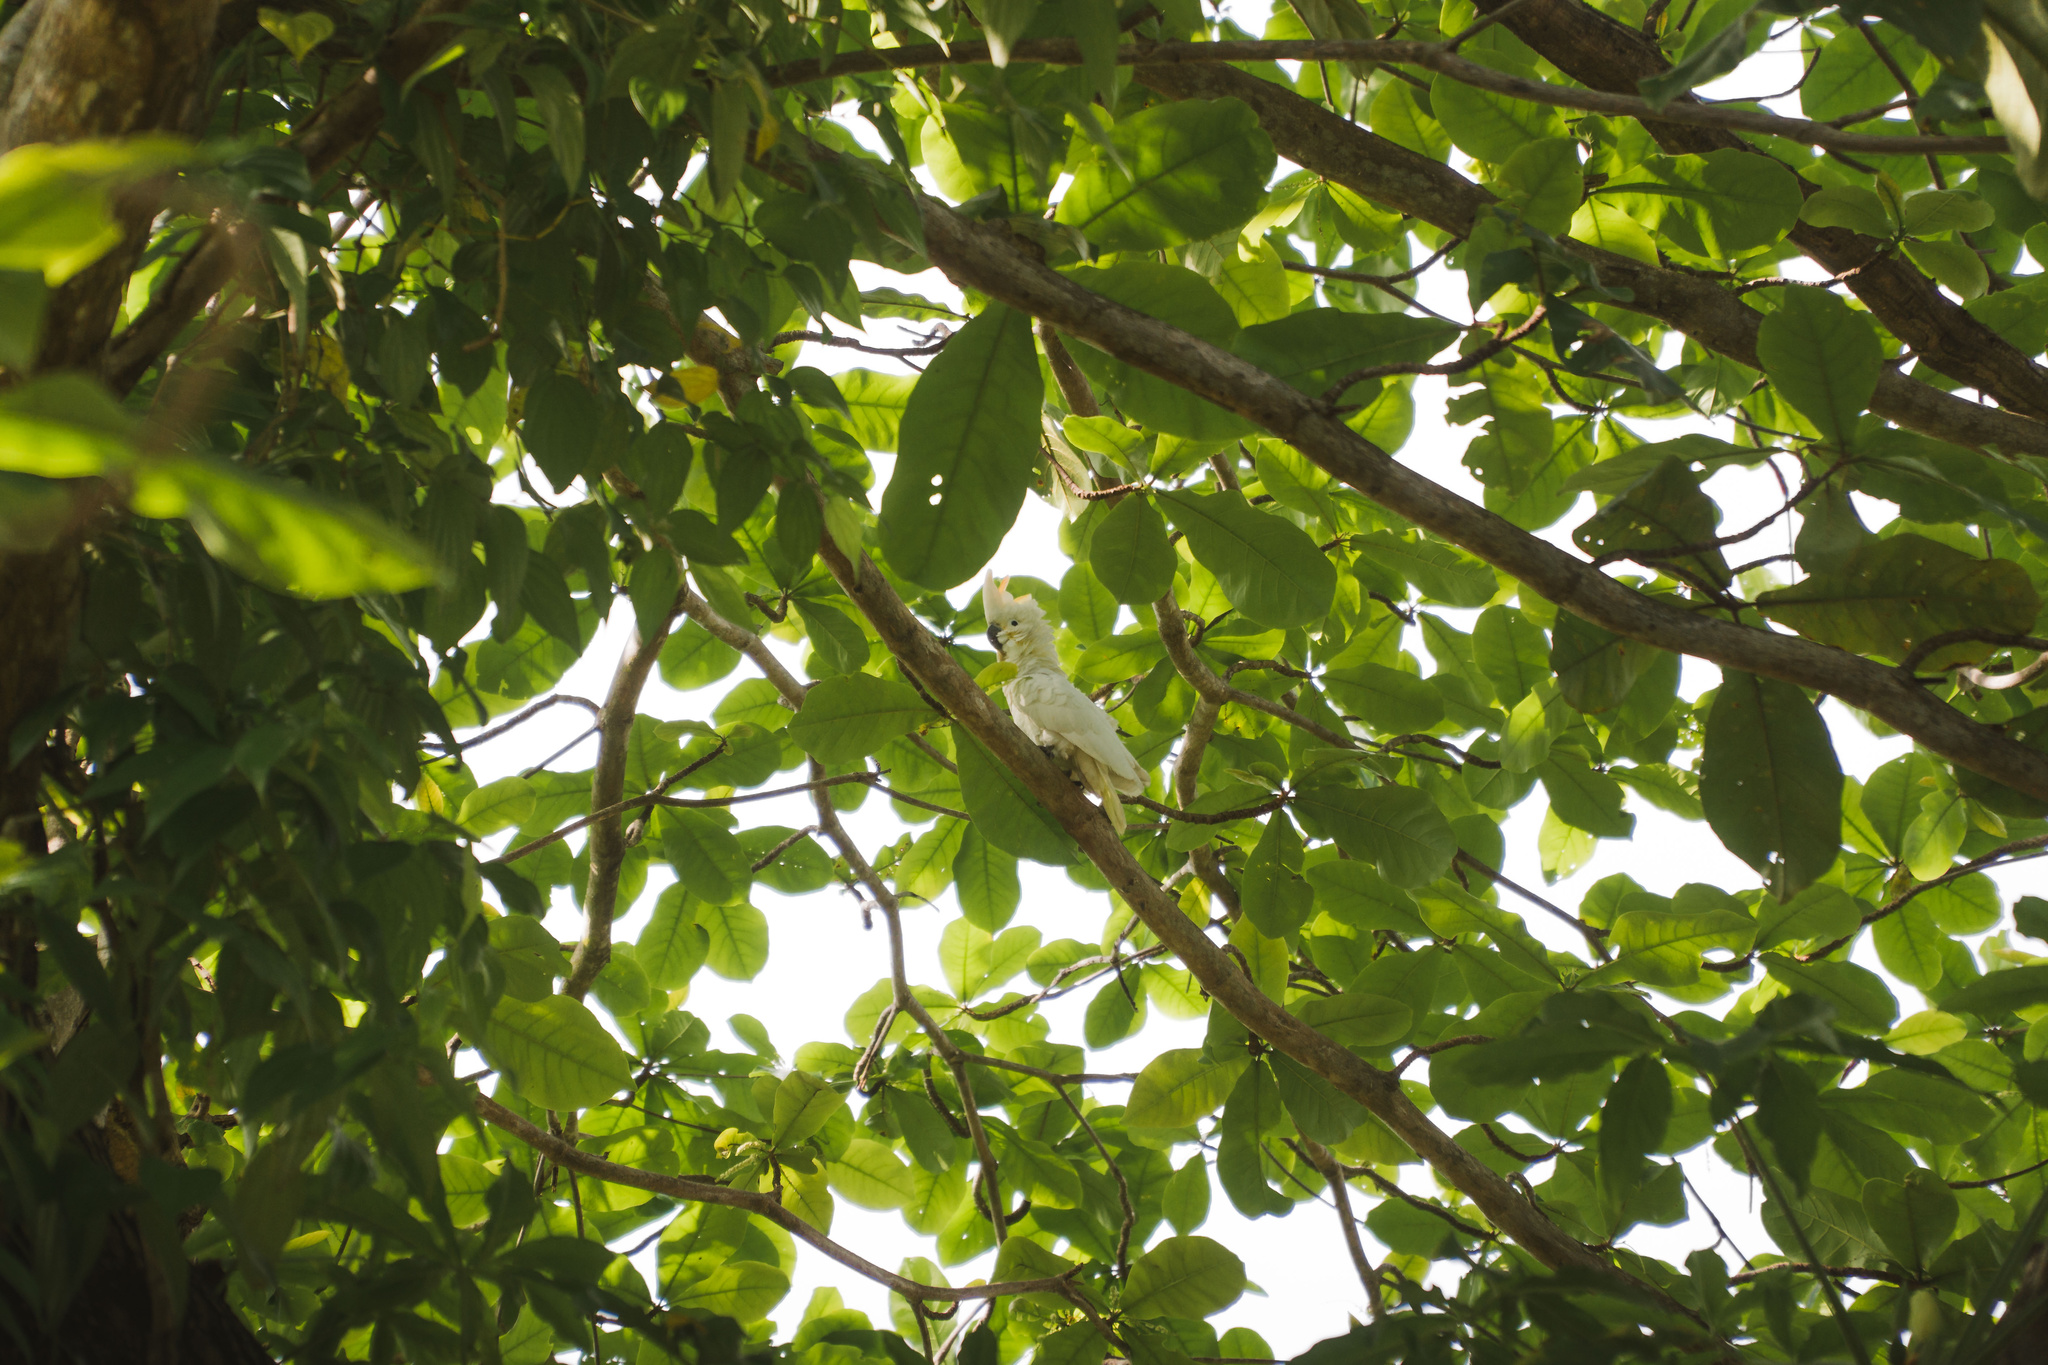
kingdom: Animalia
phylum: Chordata
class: Aves
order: Psittaciformes
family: Psittacidae
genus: Cacatua
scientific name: Cacatua sulphurea
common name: Yellow-crested cockatoo
